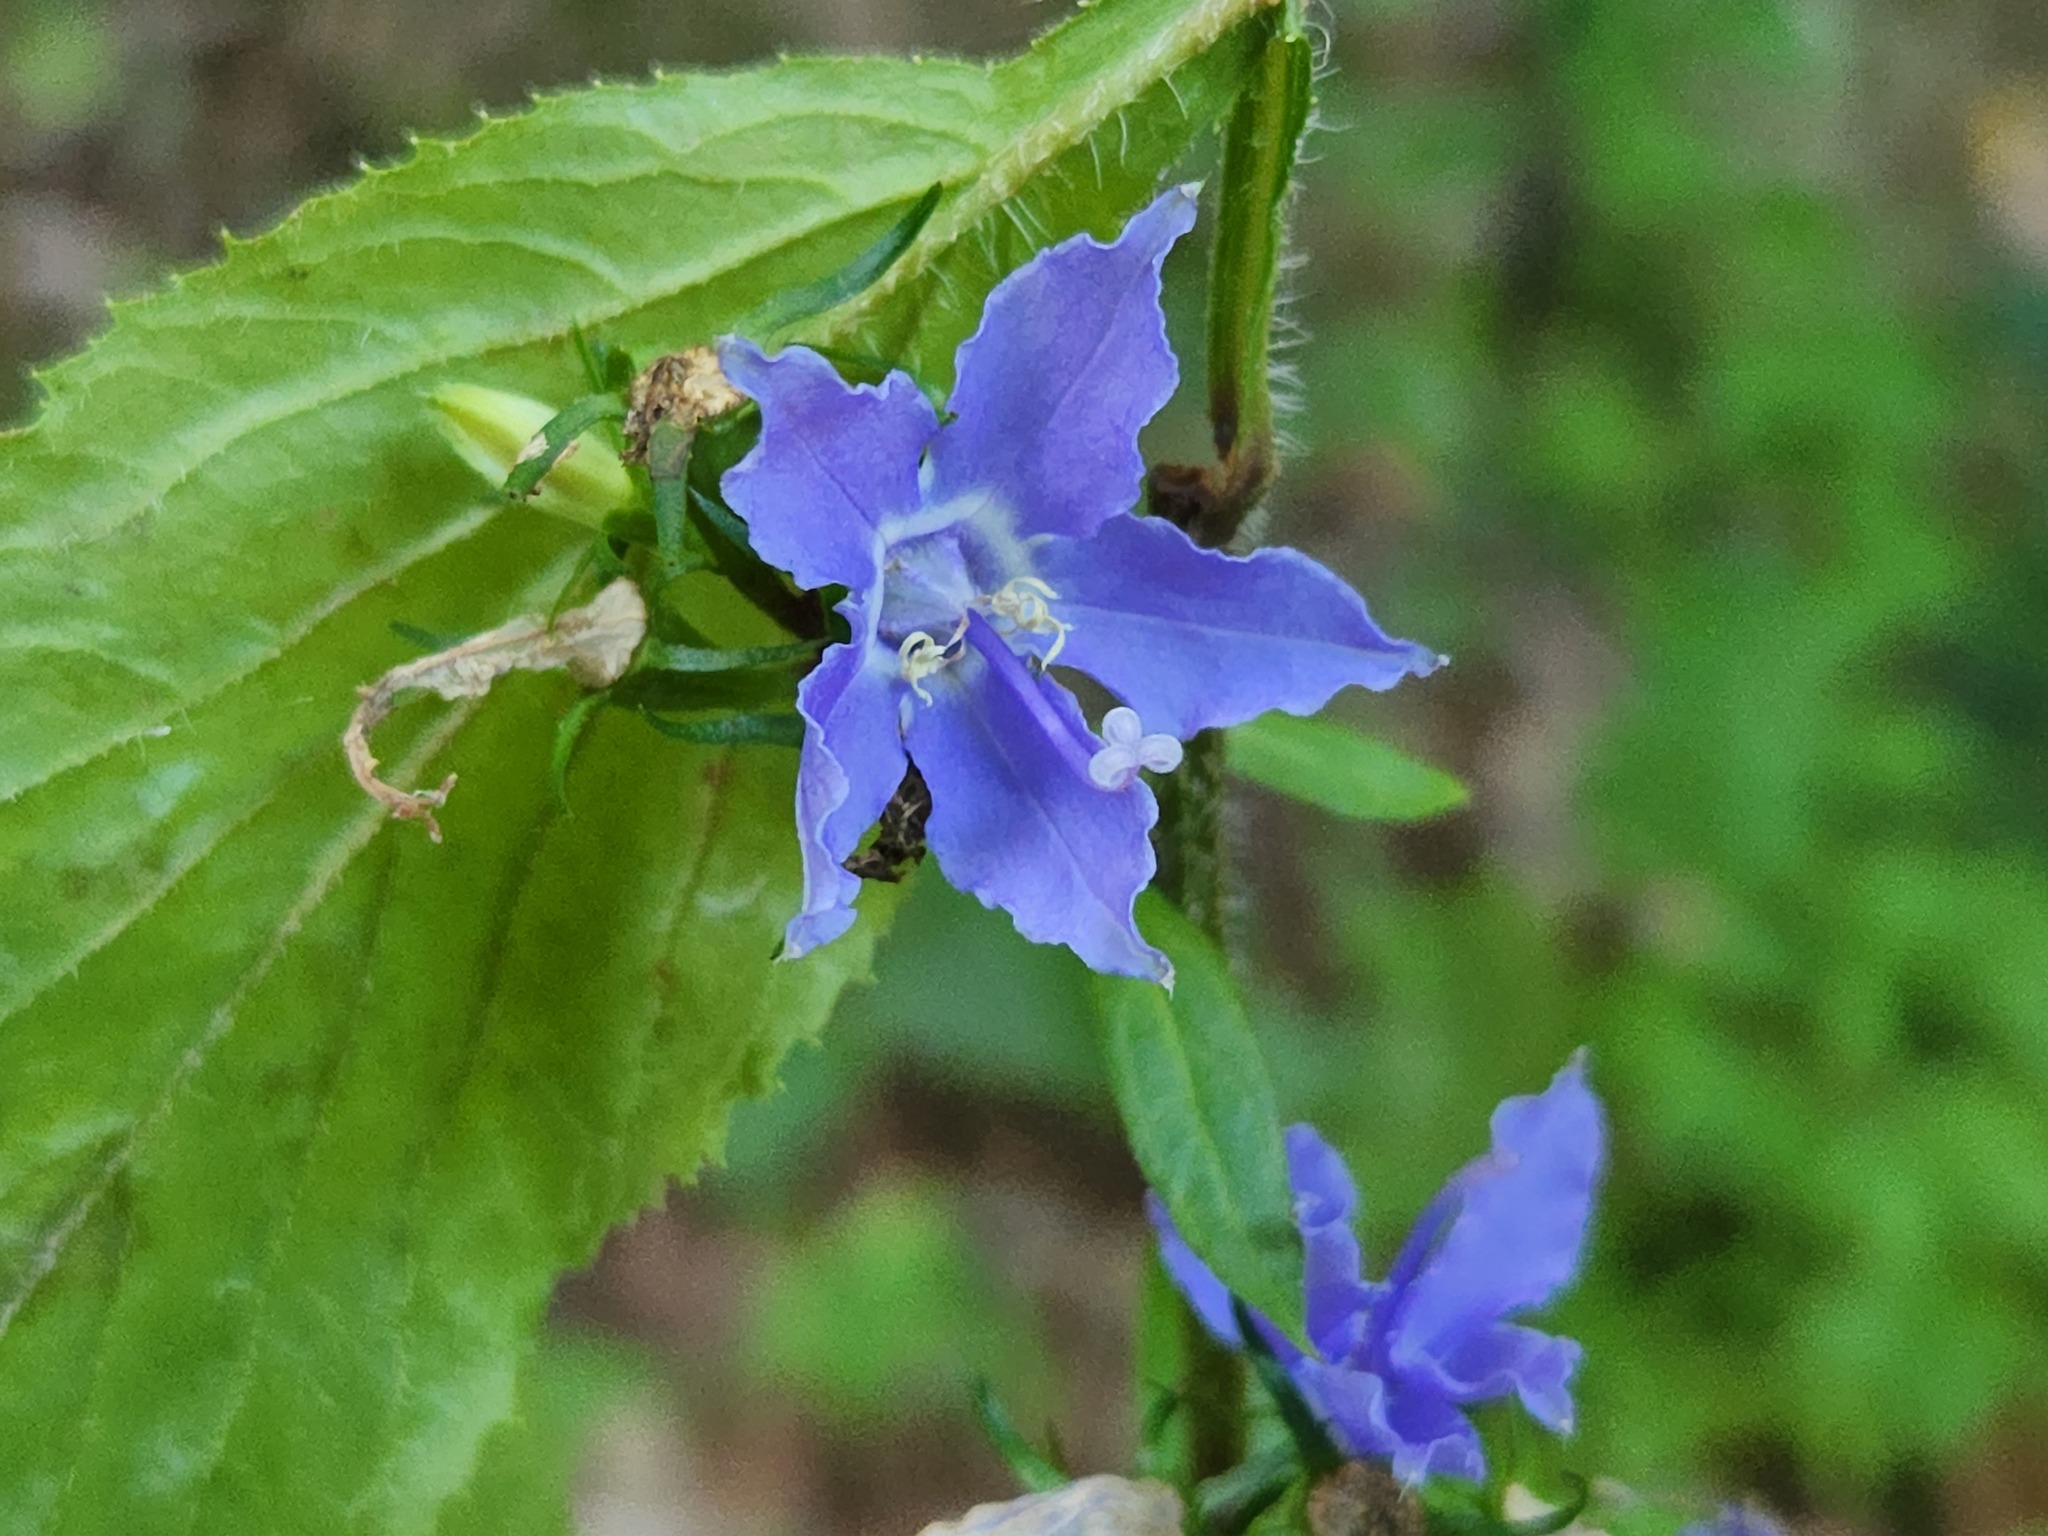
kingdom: Plantae
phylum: Tracheophyta
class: Magnoliopsida
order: Asterales
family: Campanulaceae
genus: Campanulastrum
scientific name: Campanulastrum americanum
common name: American bellflower
